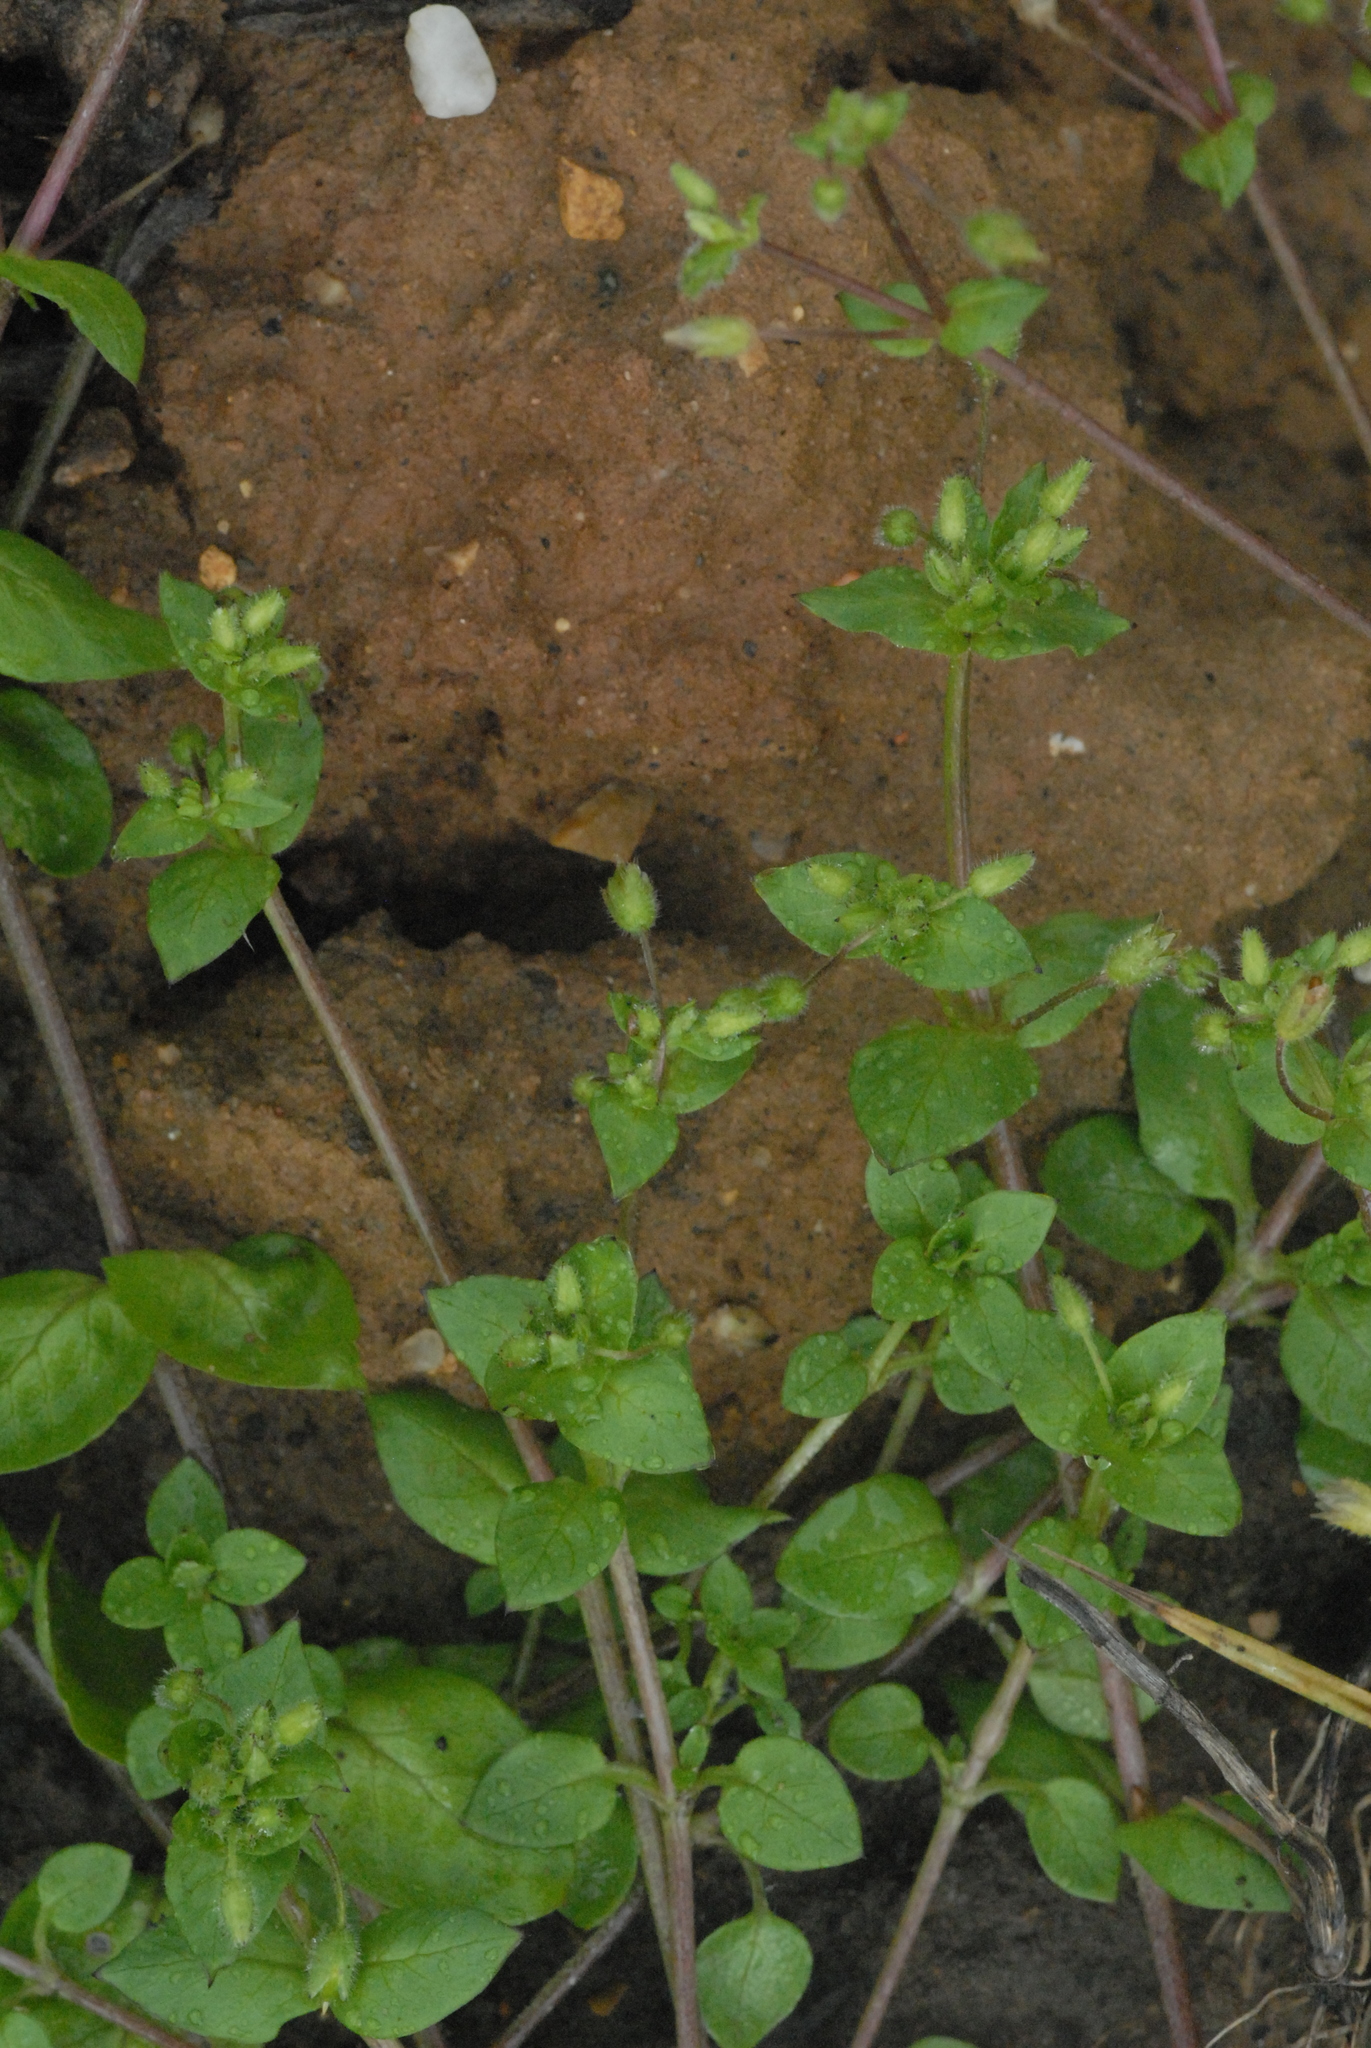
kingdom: Plantae
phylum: Tracheophyta
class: Magnoliopsida
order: Caryophyllales
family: Caryophyllaceae
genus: Stellaria
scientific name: Stellaria media
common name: Common chickweed
